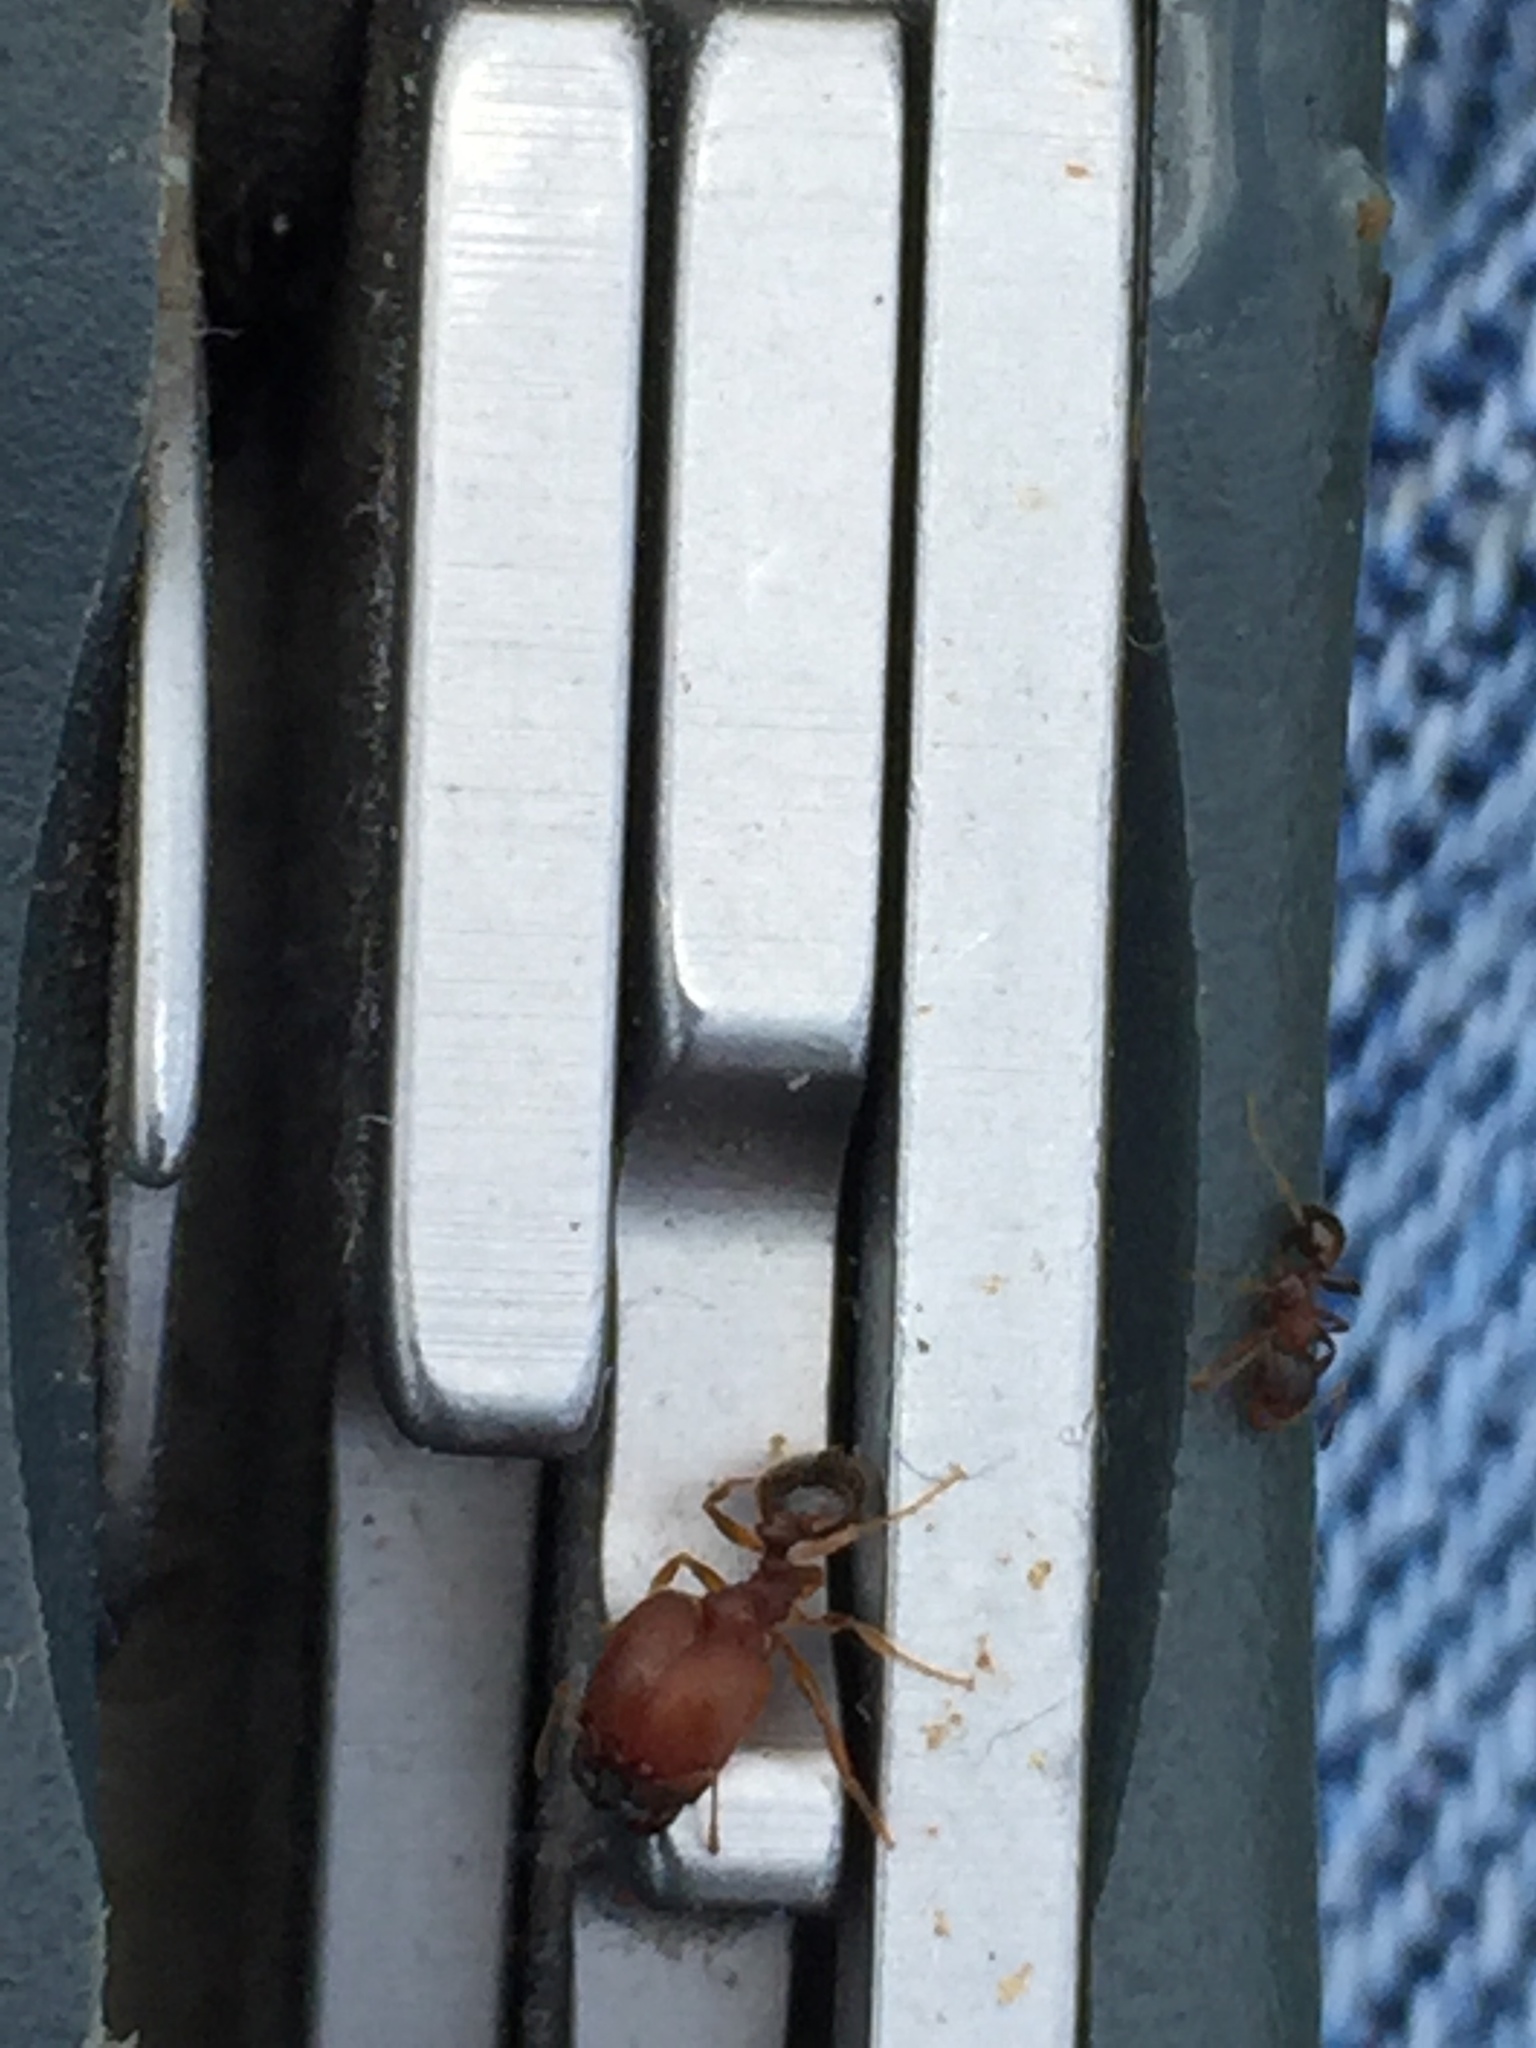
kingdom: Animalia
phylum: Arthropoda
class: Insecta
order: Hymenoptera
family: Formicidae
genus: Pheidole
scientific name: Pheidole pilifera
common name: Hairy big-headed ant
